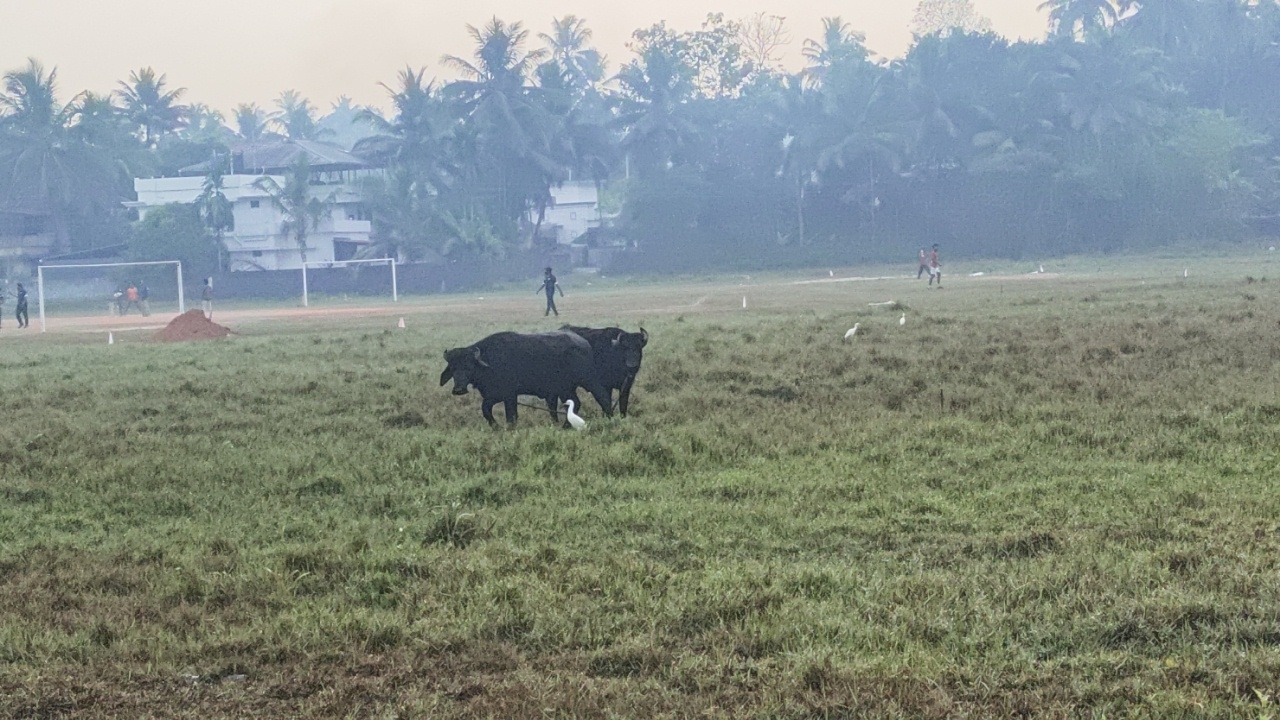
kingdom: Animalia
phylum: Chordata
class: Aves
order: Pelecaniformes
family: Ardeidae
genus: Bubulcus
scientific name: Bubulcus coromandus
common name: Eastern cattle egret
